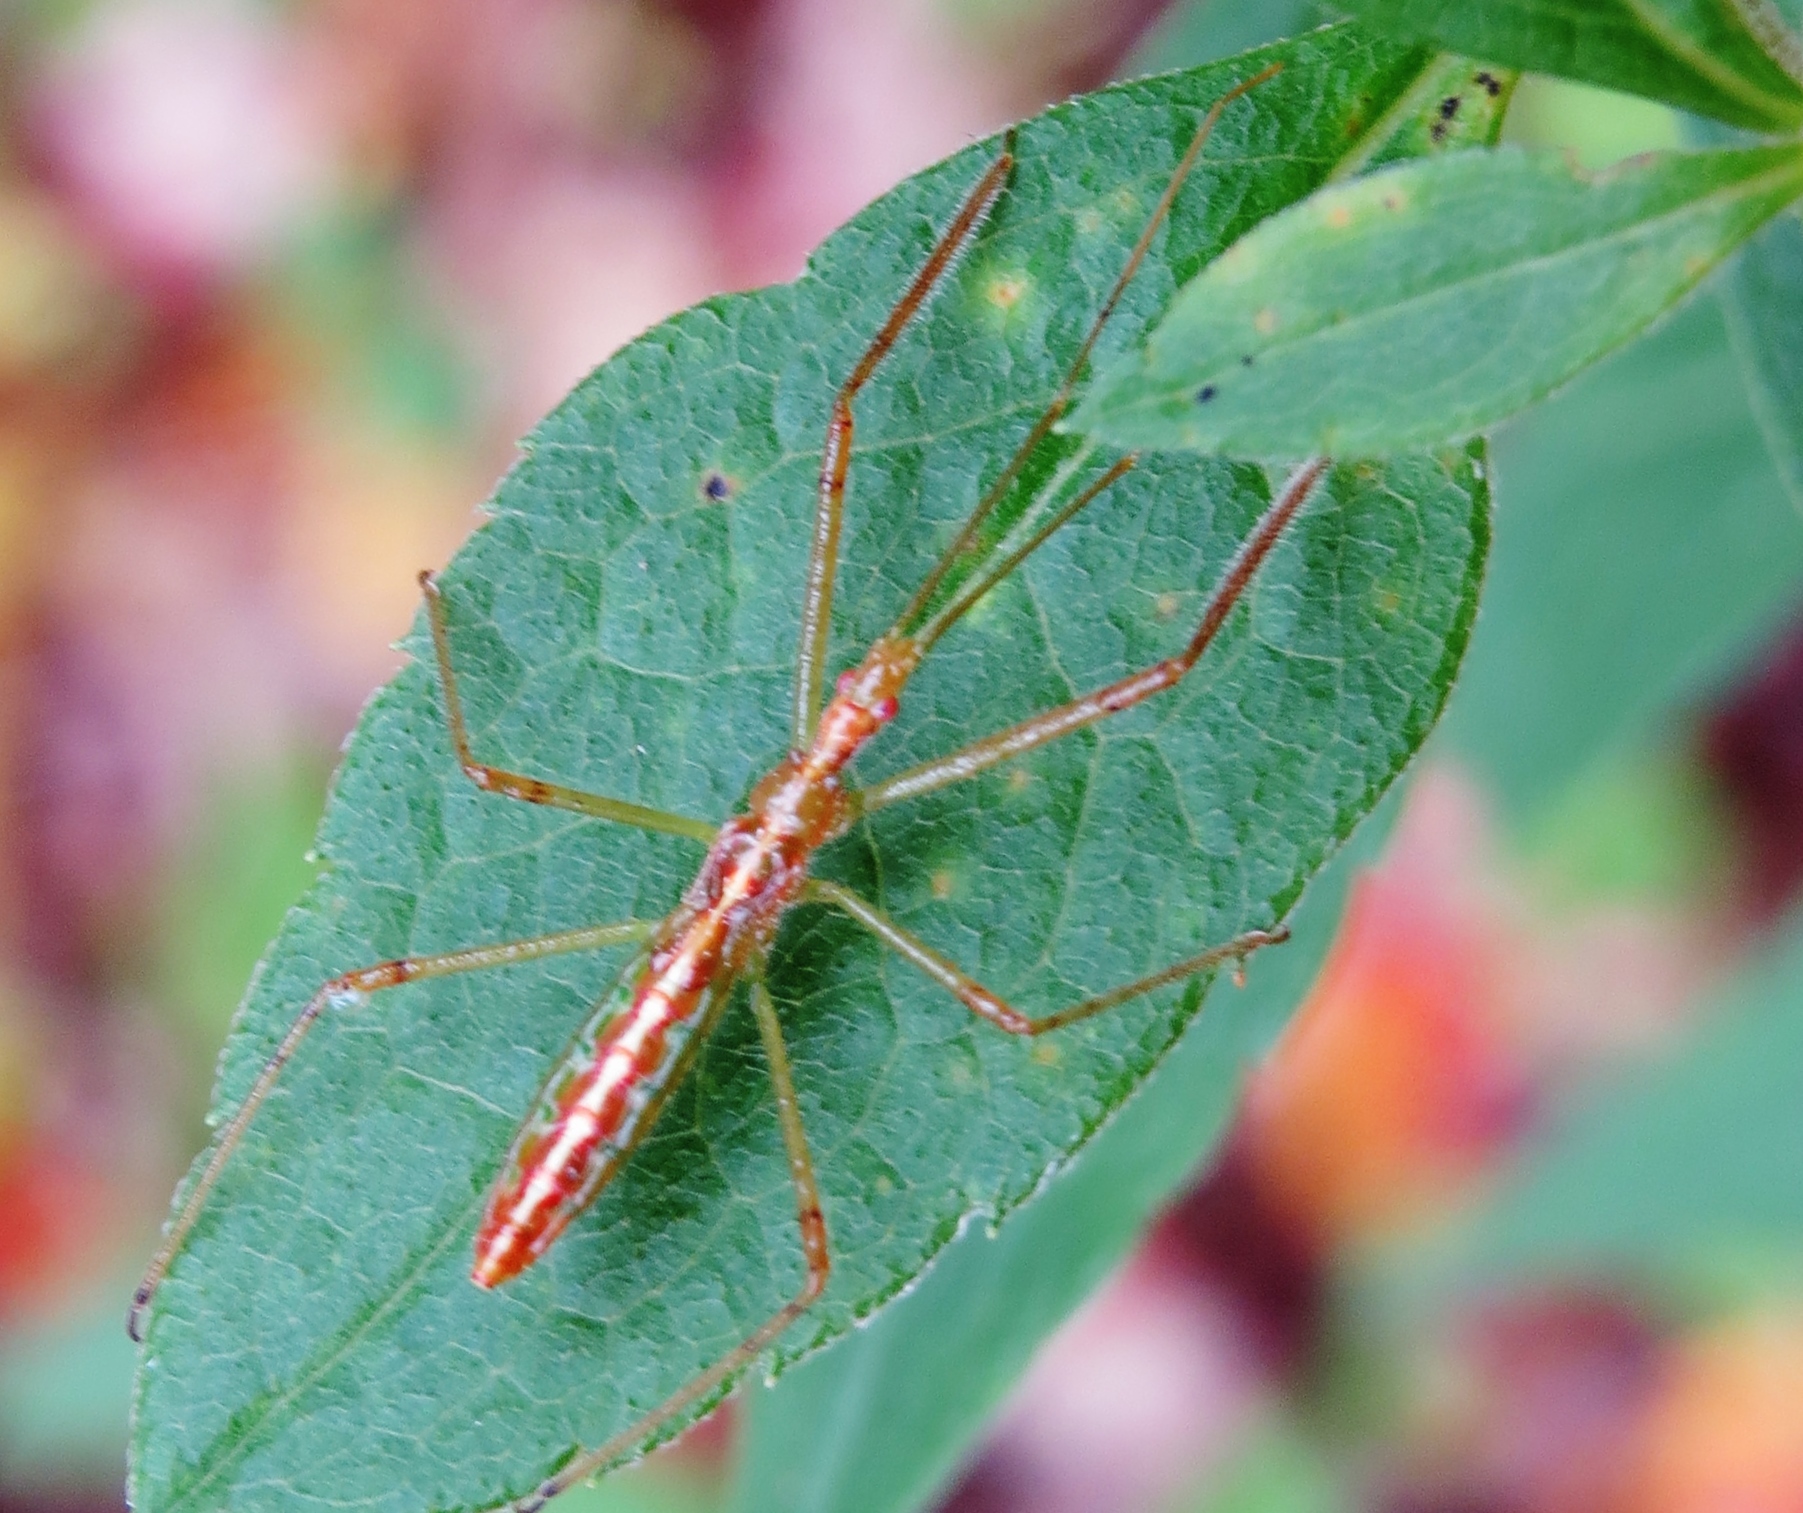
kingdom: Animalia
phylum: Arthropoda
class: Insecta
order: Hemiptera
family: Reduviidae
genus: Zelus
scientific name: Zelus luridus
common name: Pale green assassin bug
